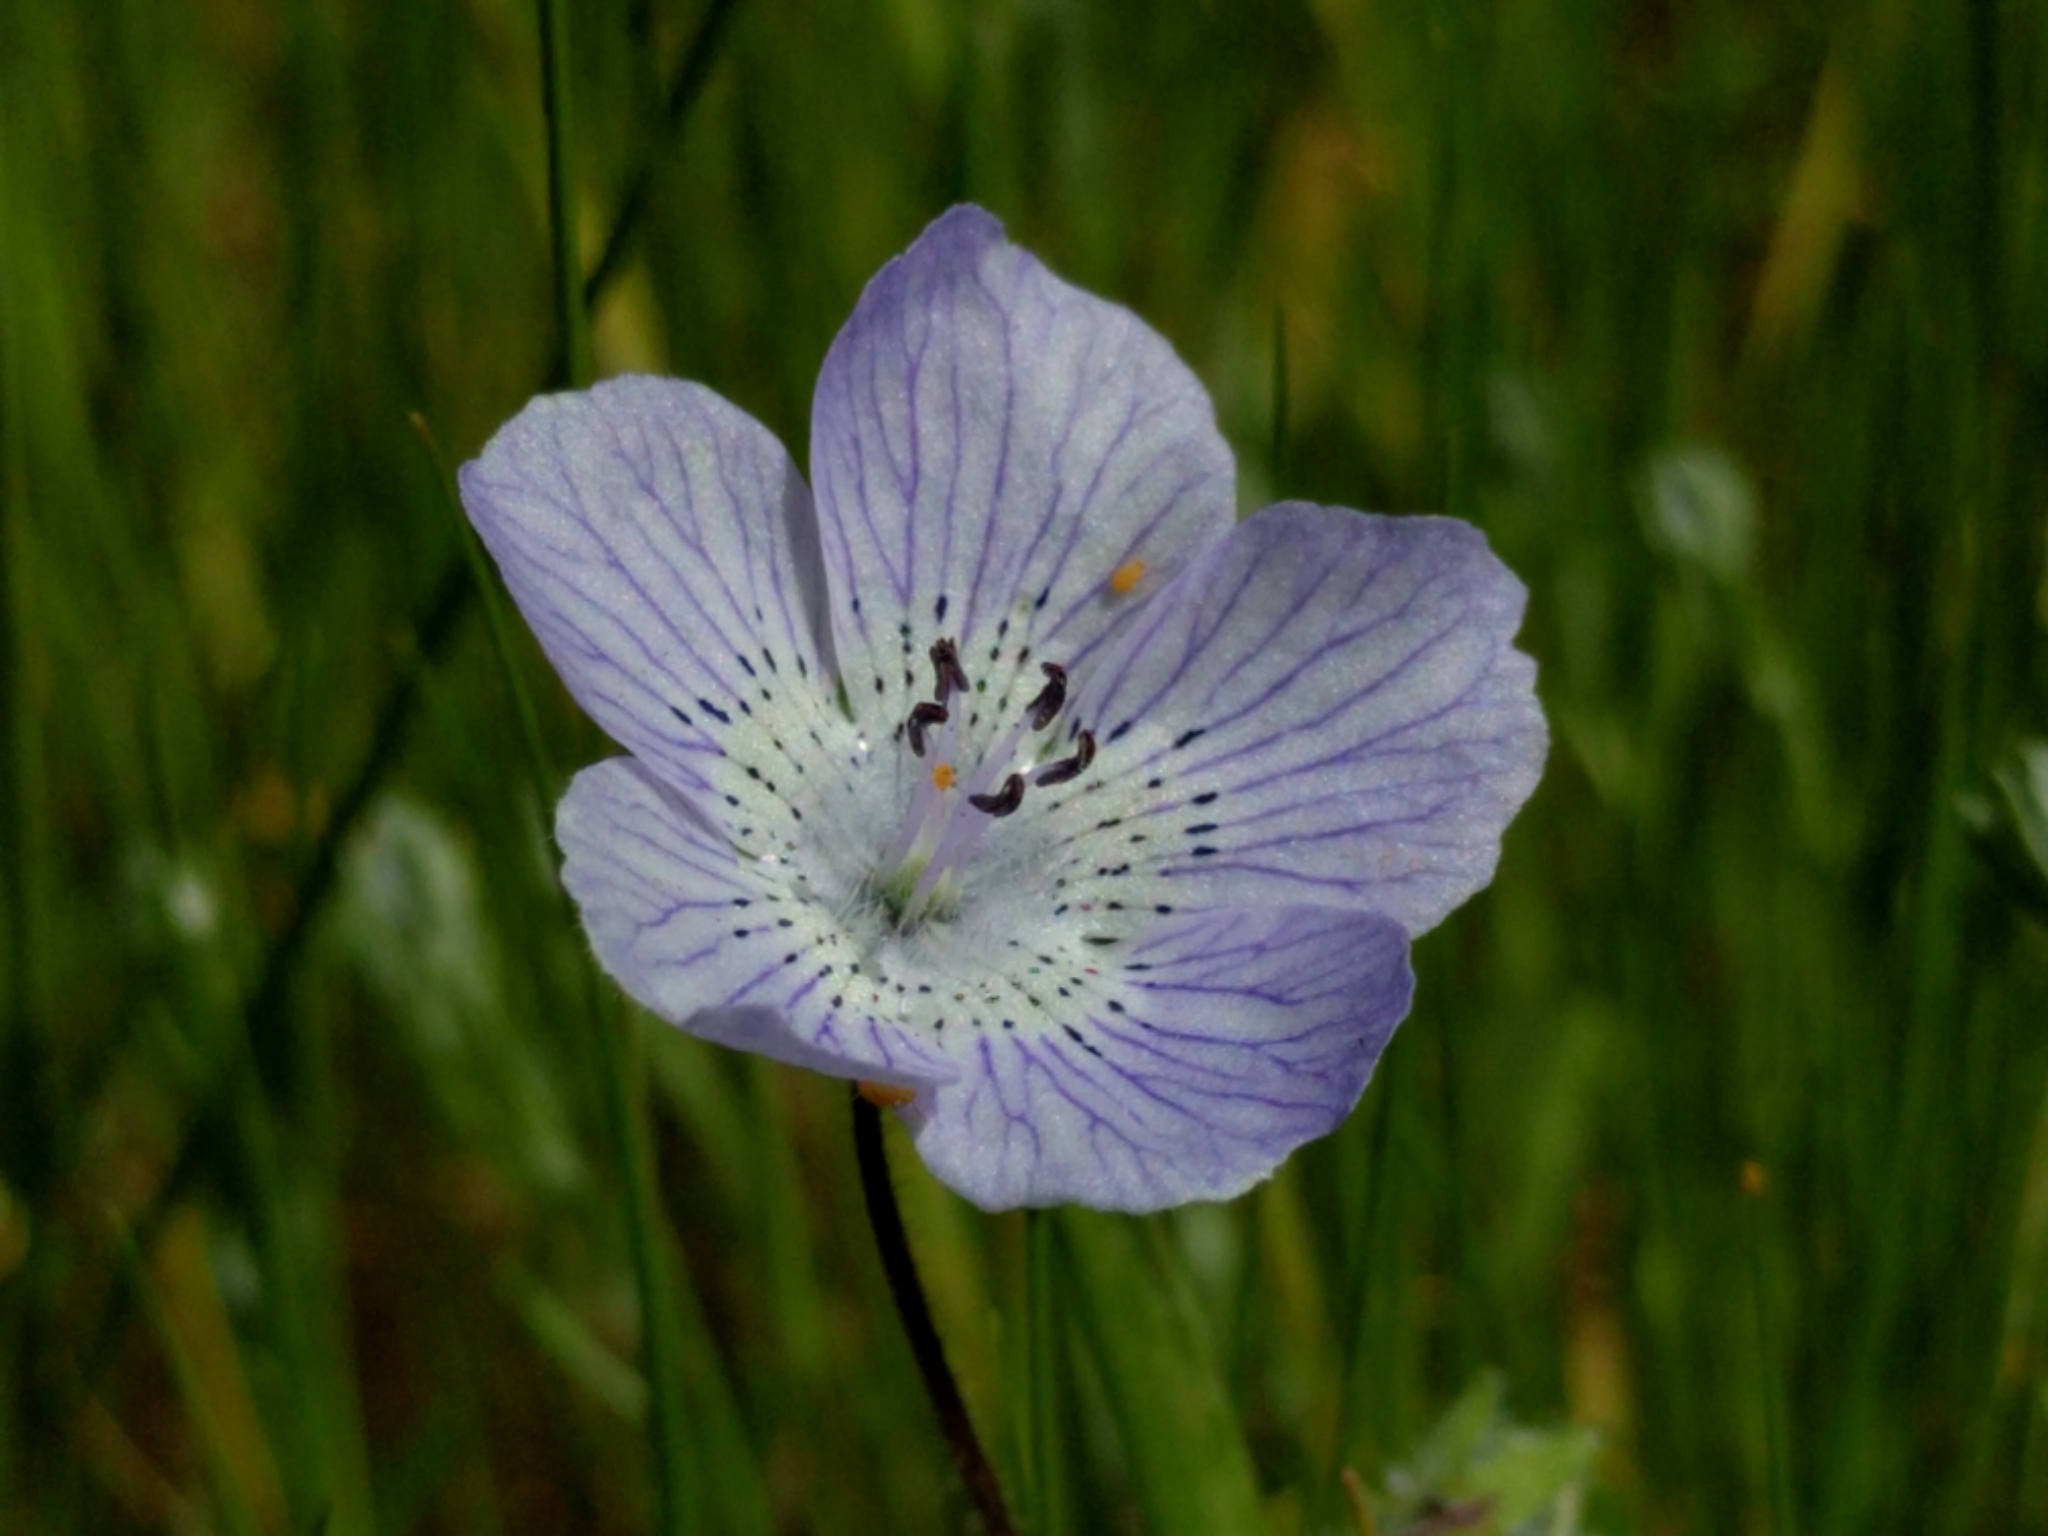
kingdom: Plantae
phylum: Tracheophyta
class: Magnoliopsida
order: Boraginales
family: Hydrophyllaceae
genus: Nemophila
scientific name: Nemophila menziesii
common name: Baby's-blue-eyes
